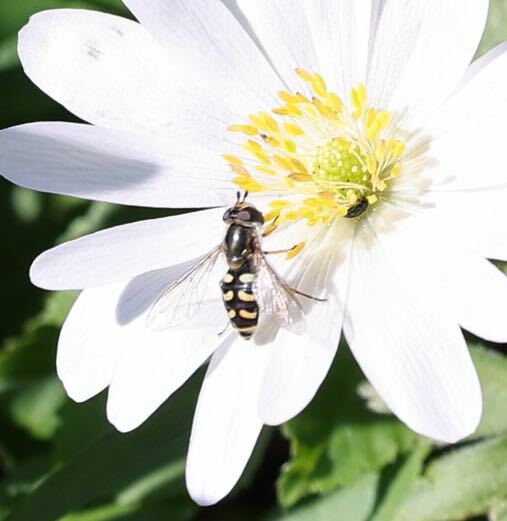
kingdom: Animalia
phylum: Arthropoda
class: Insecta
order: Diptera
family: Syrphidae
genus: Eupeodes
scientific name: Eupeodes luniger
